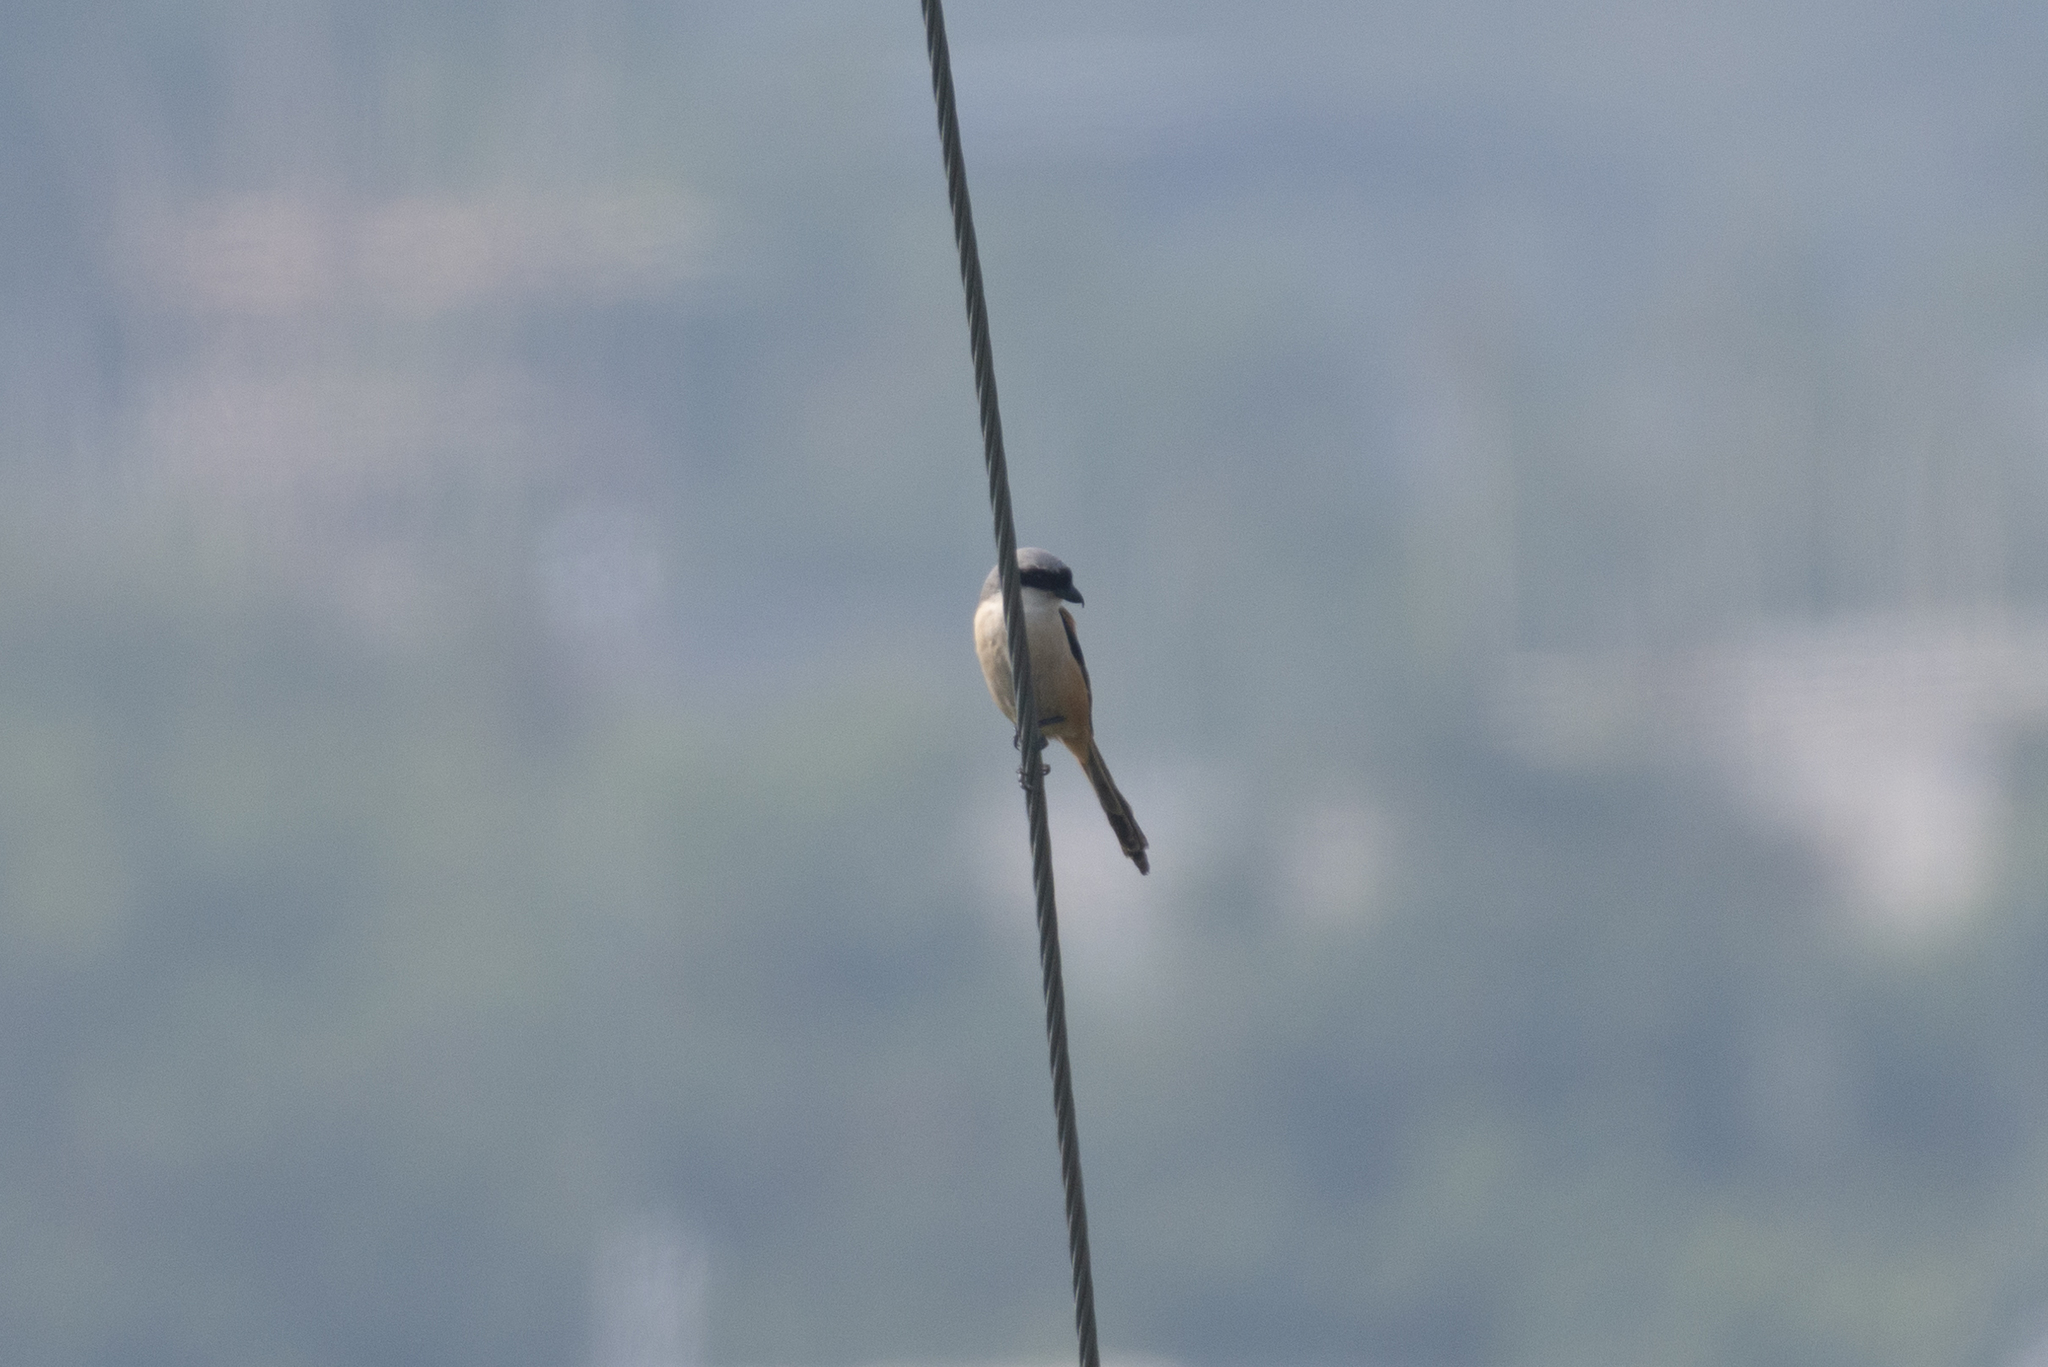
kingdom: Animalia
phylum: Chordata
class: Aves
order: Passeriformes
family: Laniidae
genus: Lanius
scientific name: Lanius schach
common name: Long-tailed shrike
